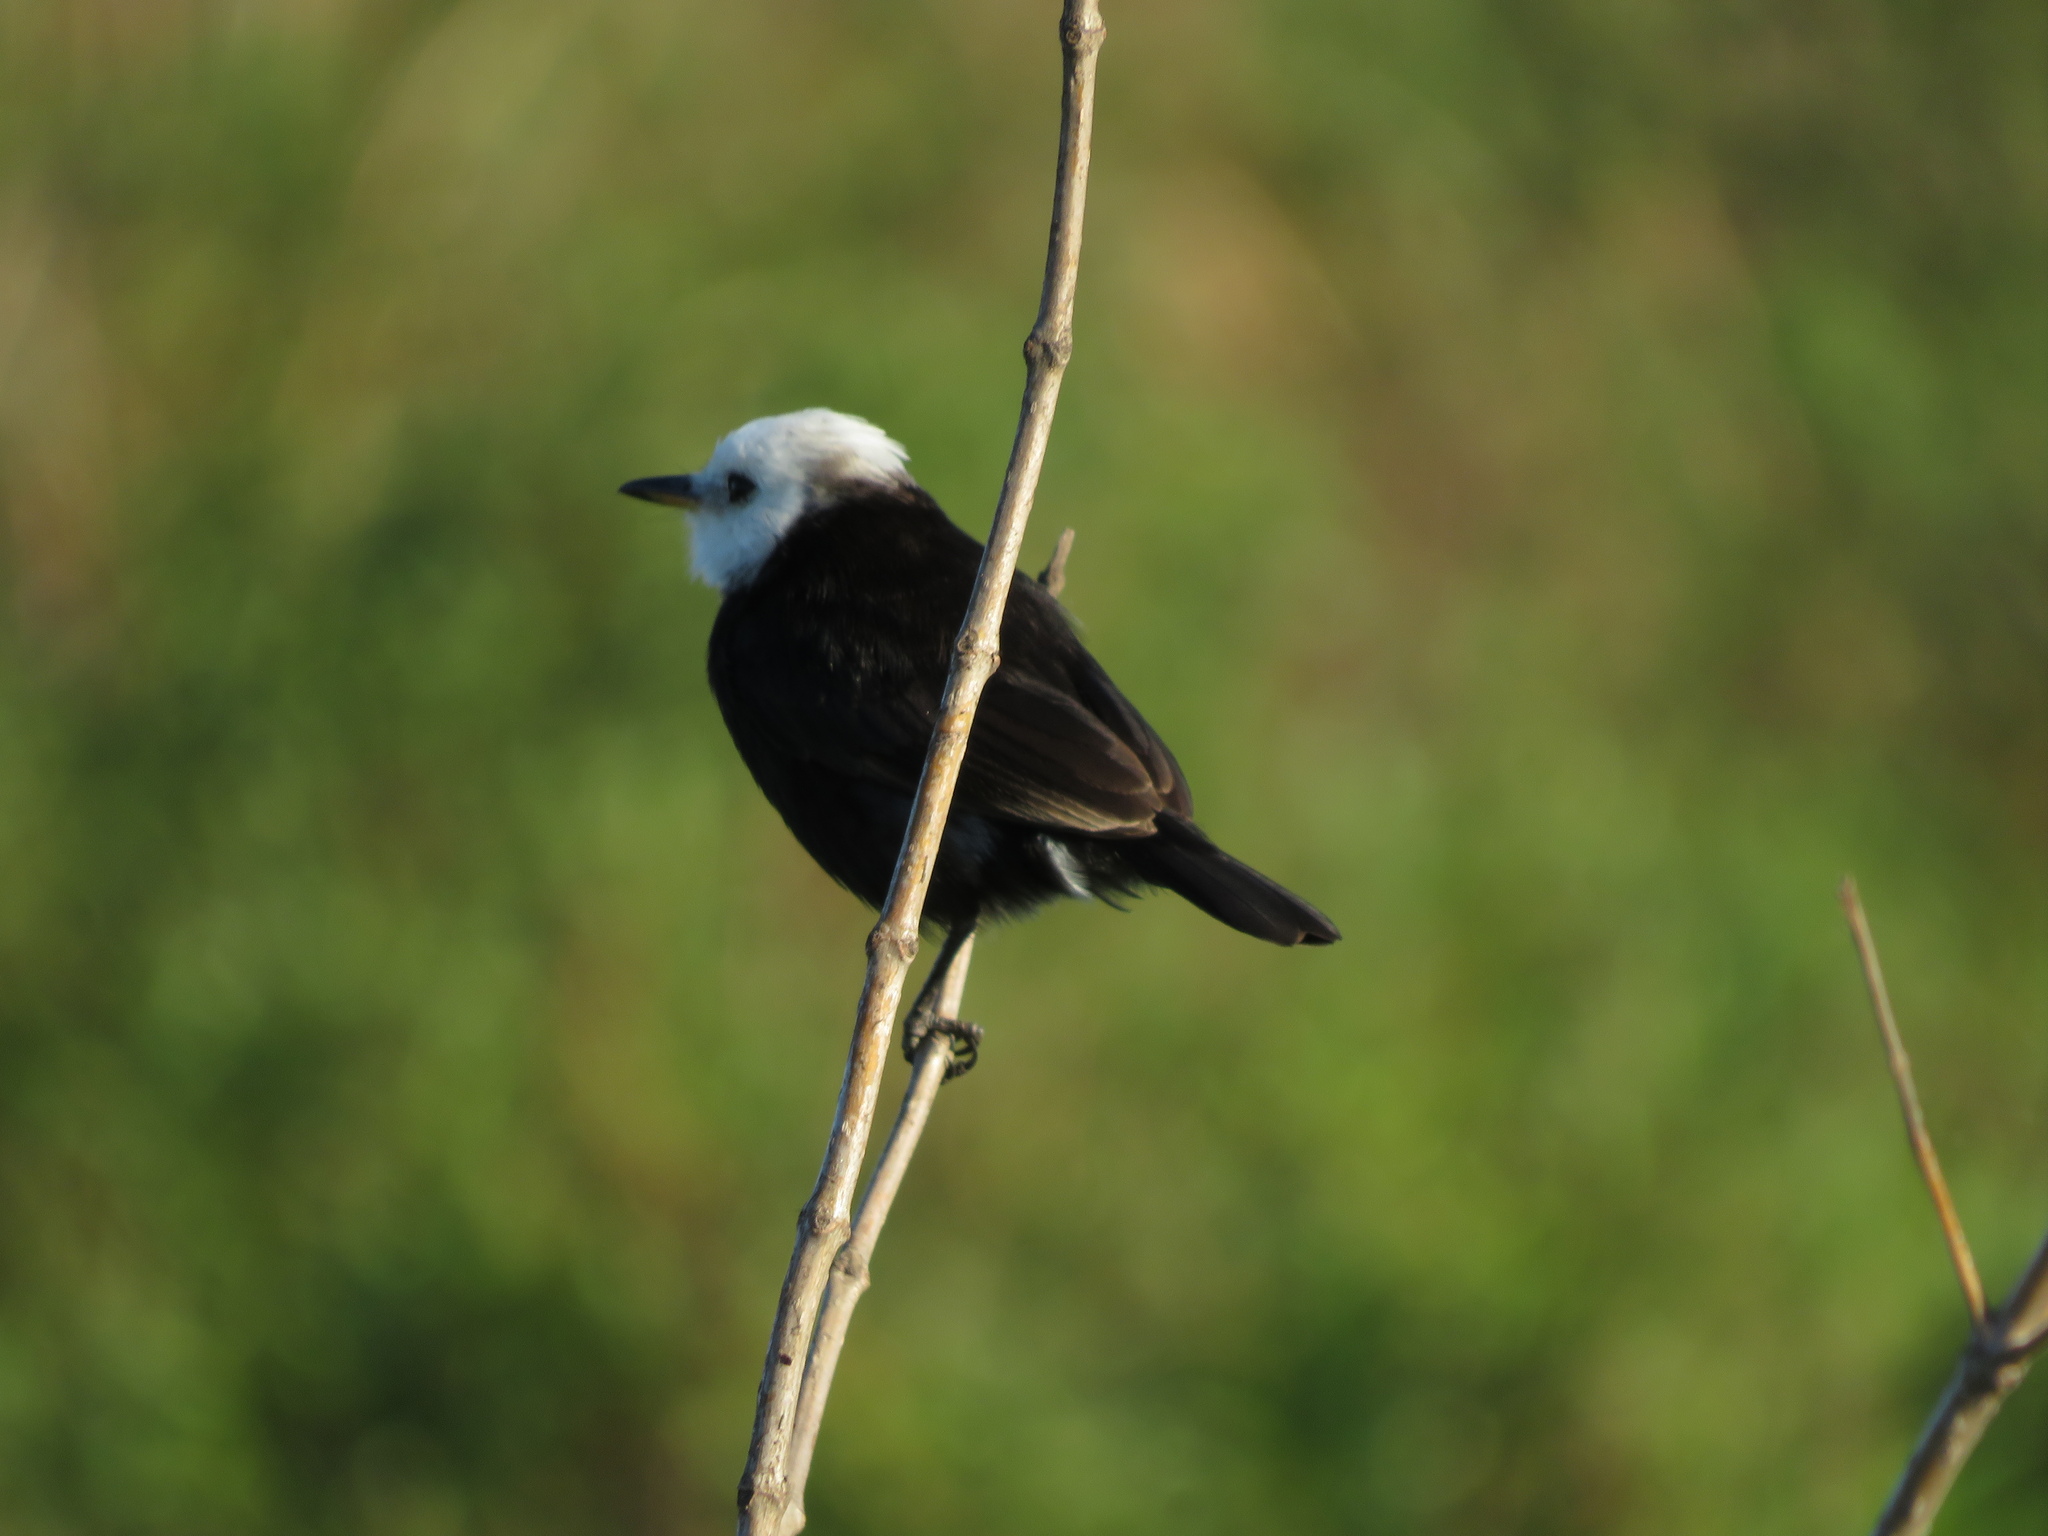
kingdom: Animalia
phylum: Chordata
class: Aves
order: Passeriformes
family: Tyrannidae
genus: Arundinicola
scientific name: Arundinicola leucocephala
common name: White-headed marsh tyrant
